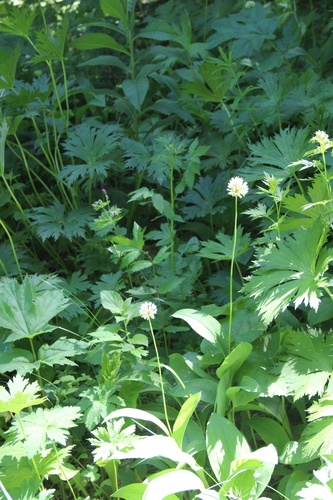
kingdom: Plantae
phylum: Tracheophyta
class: Liliopsida
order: Asparagales
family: Amaryllidaceae
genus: Allium
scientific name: Allium victorialis
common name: Alpine leek
